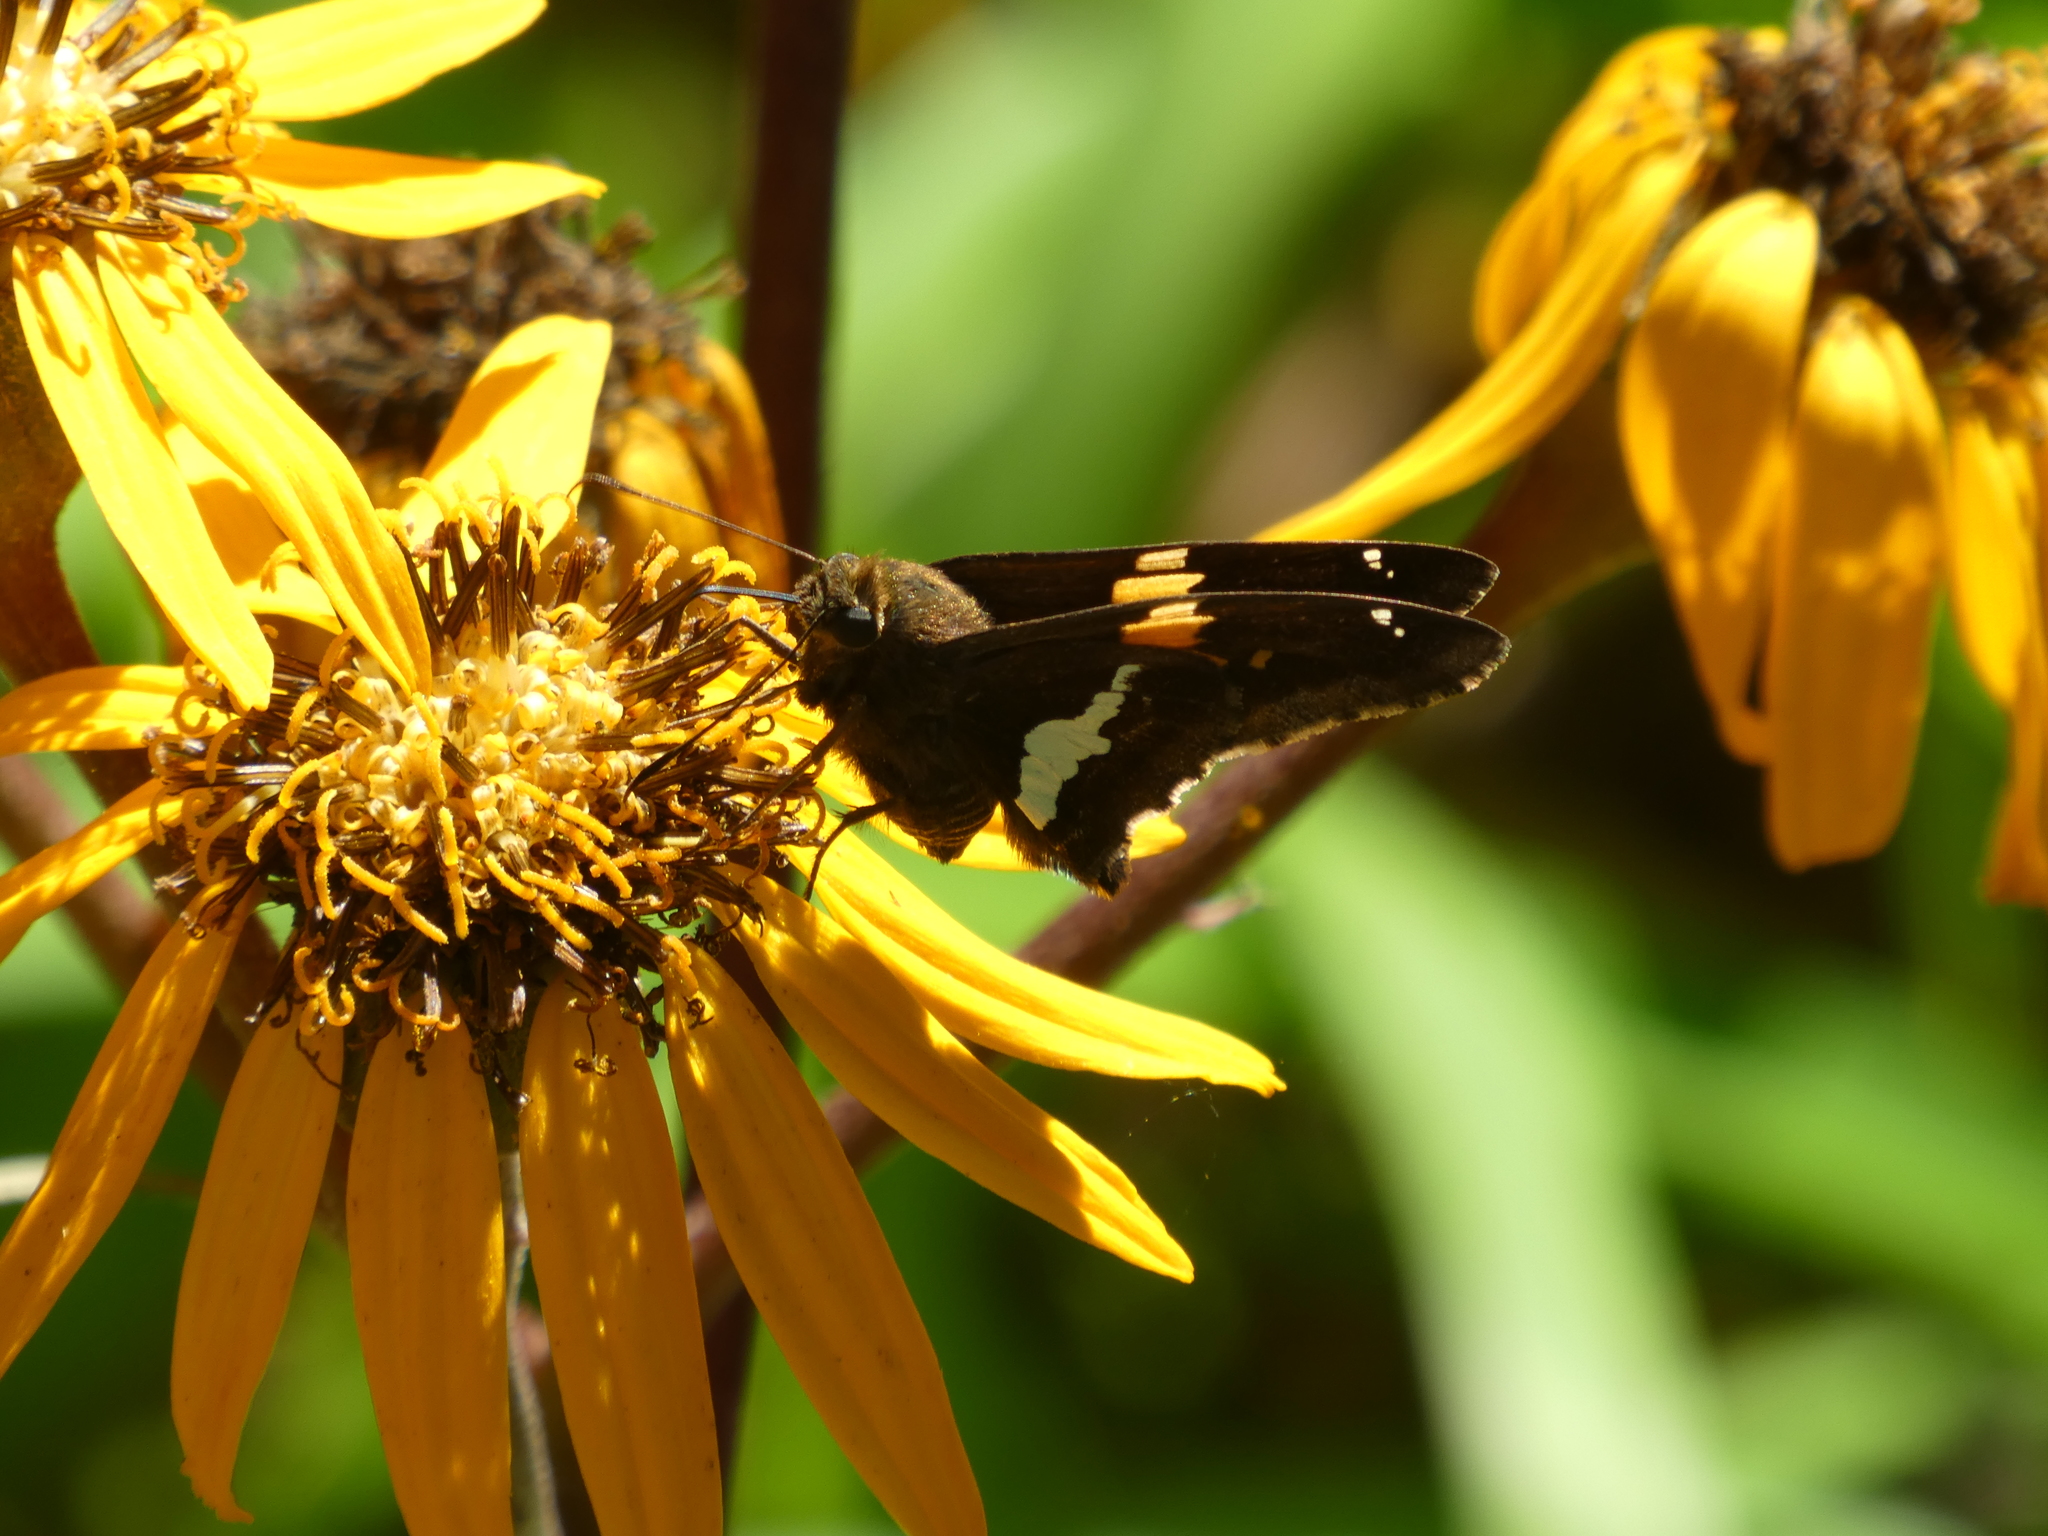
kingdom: Animalia
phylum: Arthropoda
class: Insecta
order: Lepidoptera
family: Hesperiidae
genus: Epargyreus
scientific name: Epargyreus clarus
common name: Silver-spotted skipper
